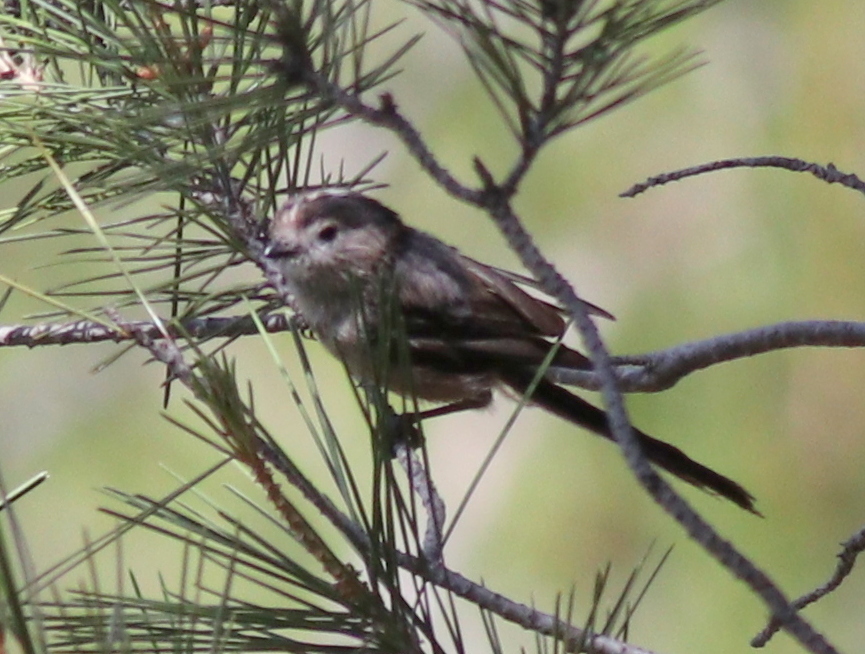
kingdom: Animalia
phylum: Chordata
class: Aves
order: Passeriformes
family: Aegithalidae
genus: Aegithalos
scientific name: Aegithalos caudatus
